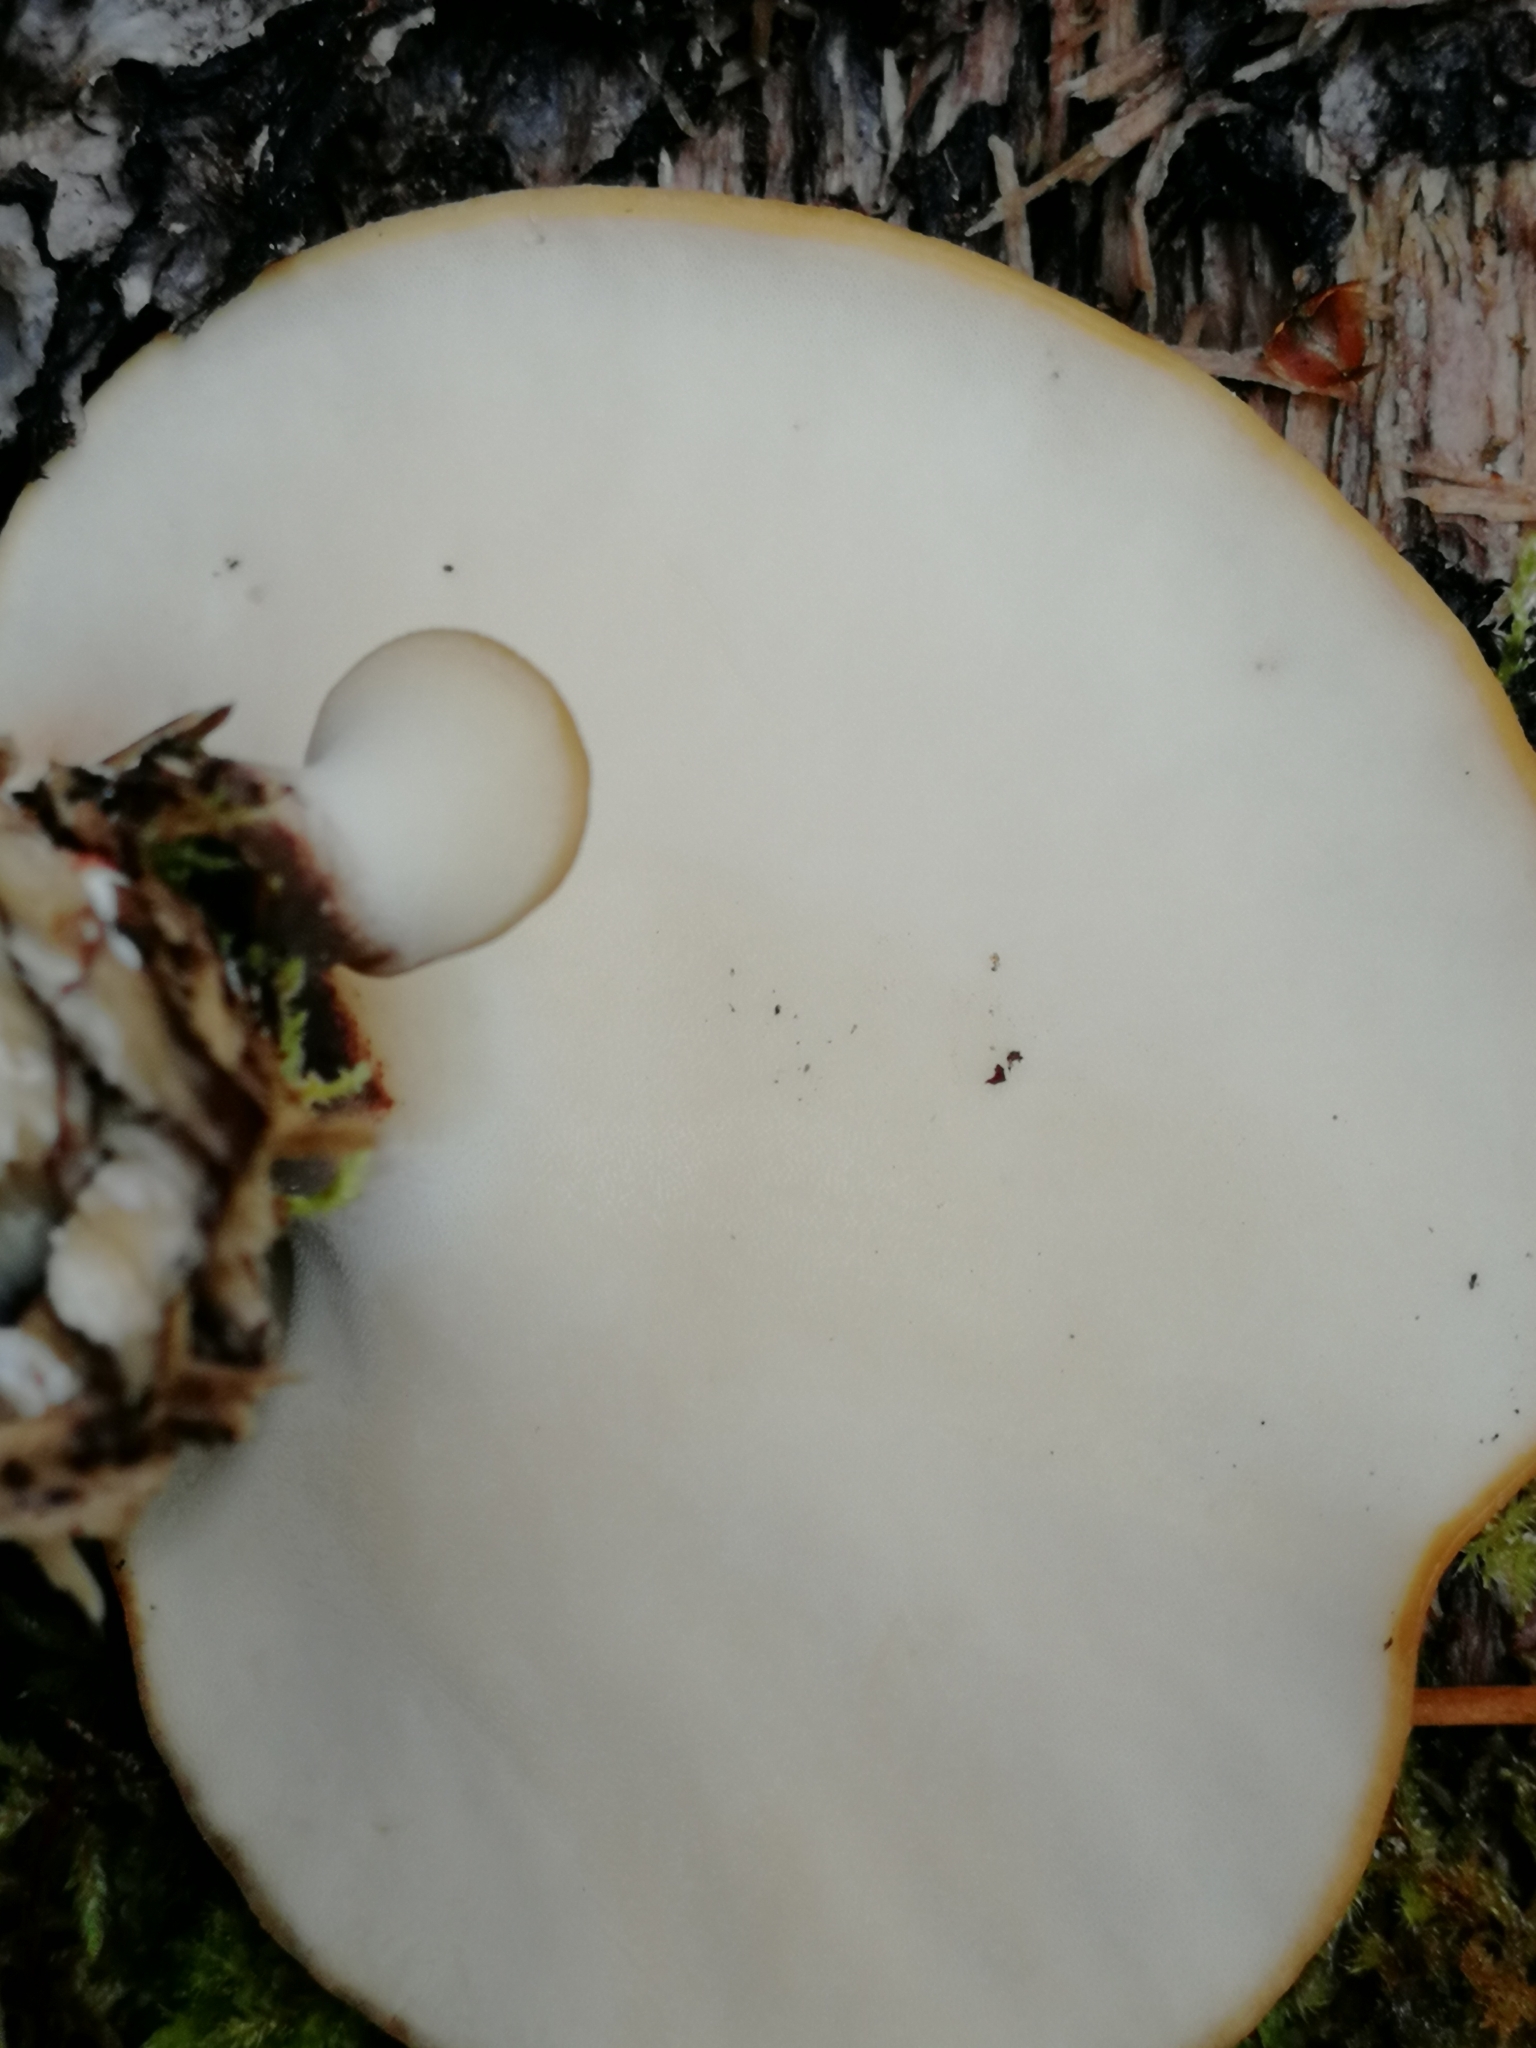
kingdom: Fungi
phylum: Basidiomycota
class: Agaricomycetes
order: Polyporales
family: Polyporaceae
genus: Picipes
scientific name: Picipes badius
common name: Bay polypore
